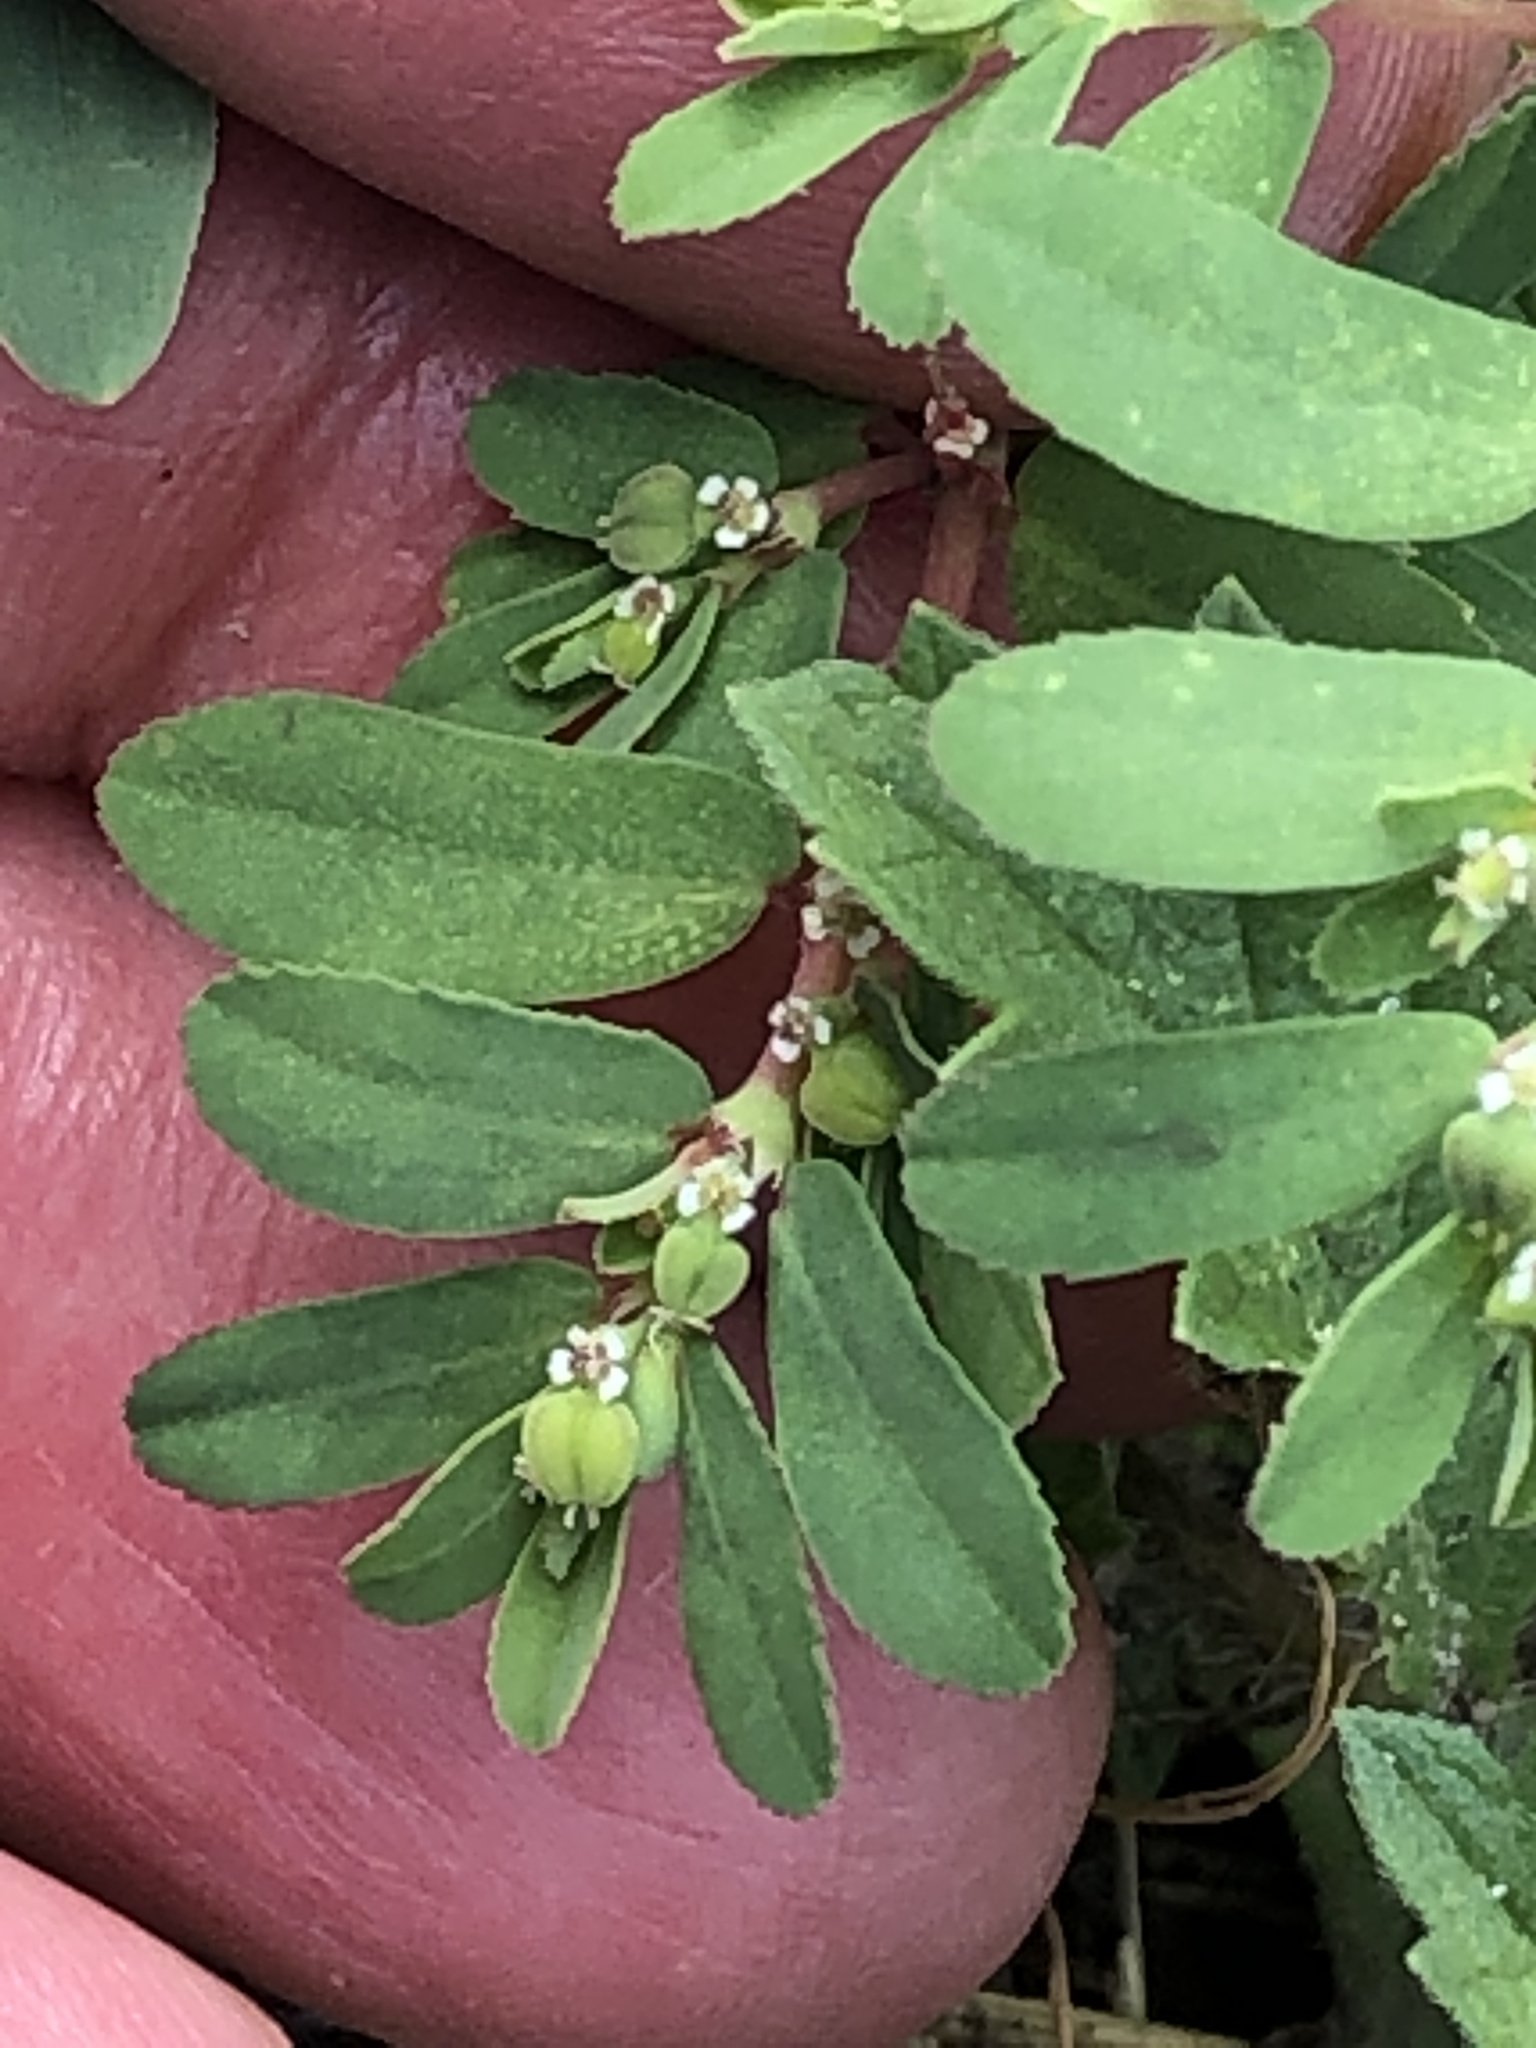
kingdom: Plantae
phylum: Tracheophyta
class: Magnoliopsida
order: Malpighiales
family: Euphorbiaceae
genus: Euphorbia
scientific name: Euphorbia serpillifolia
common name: Thyme-leaf spurge
